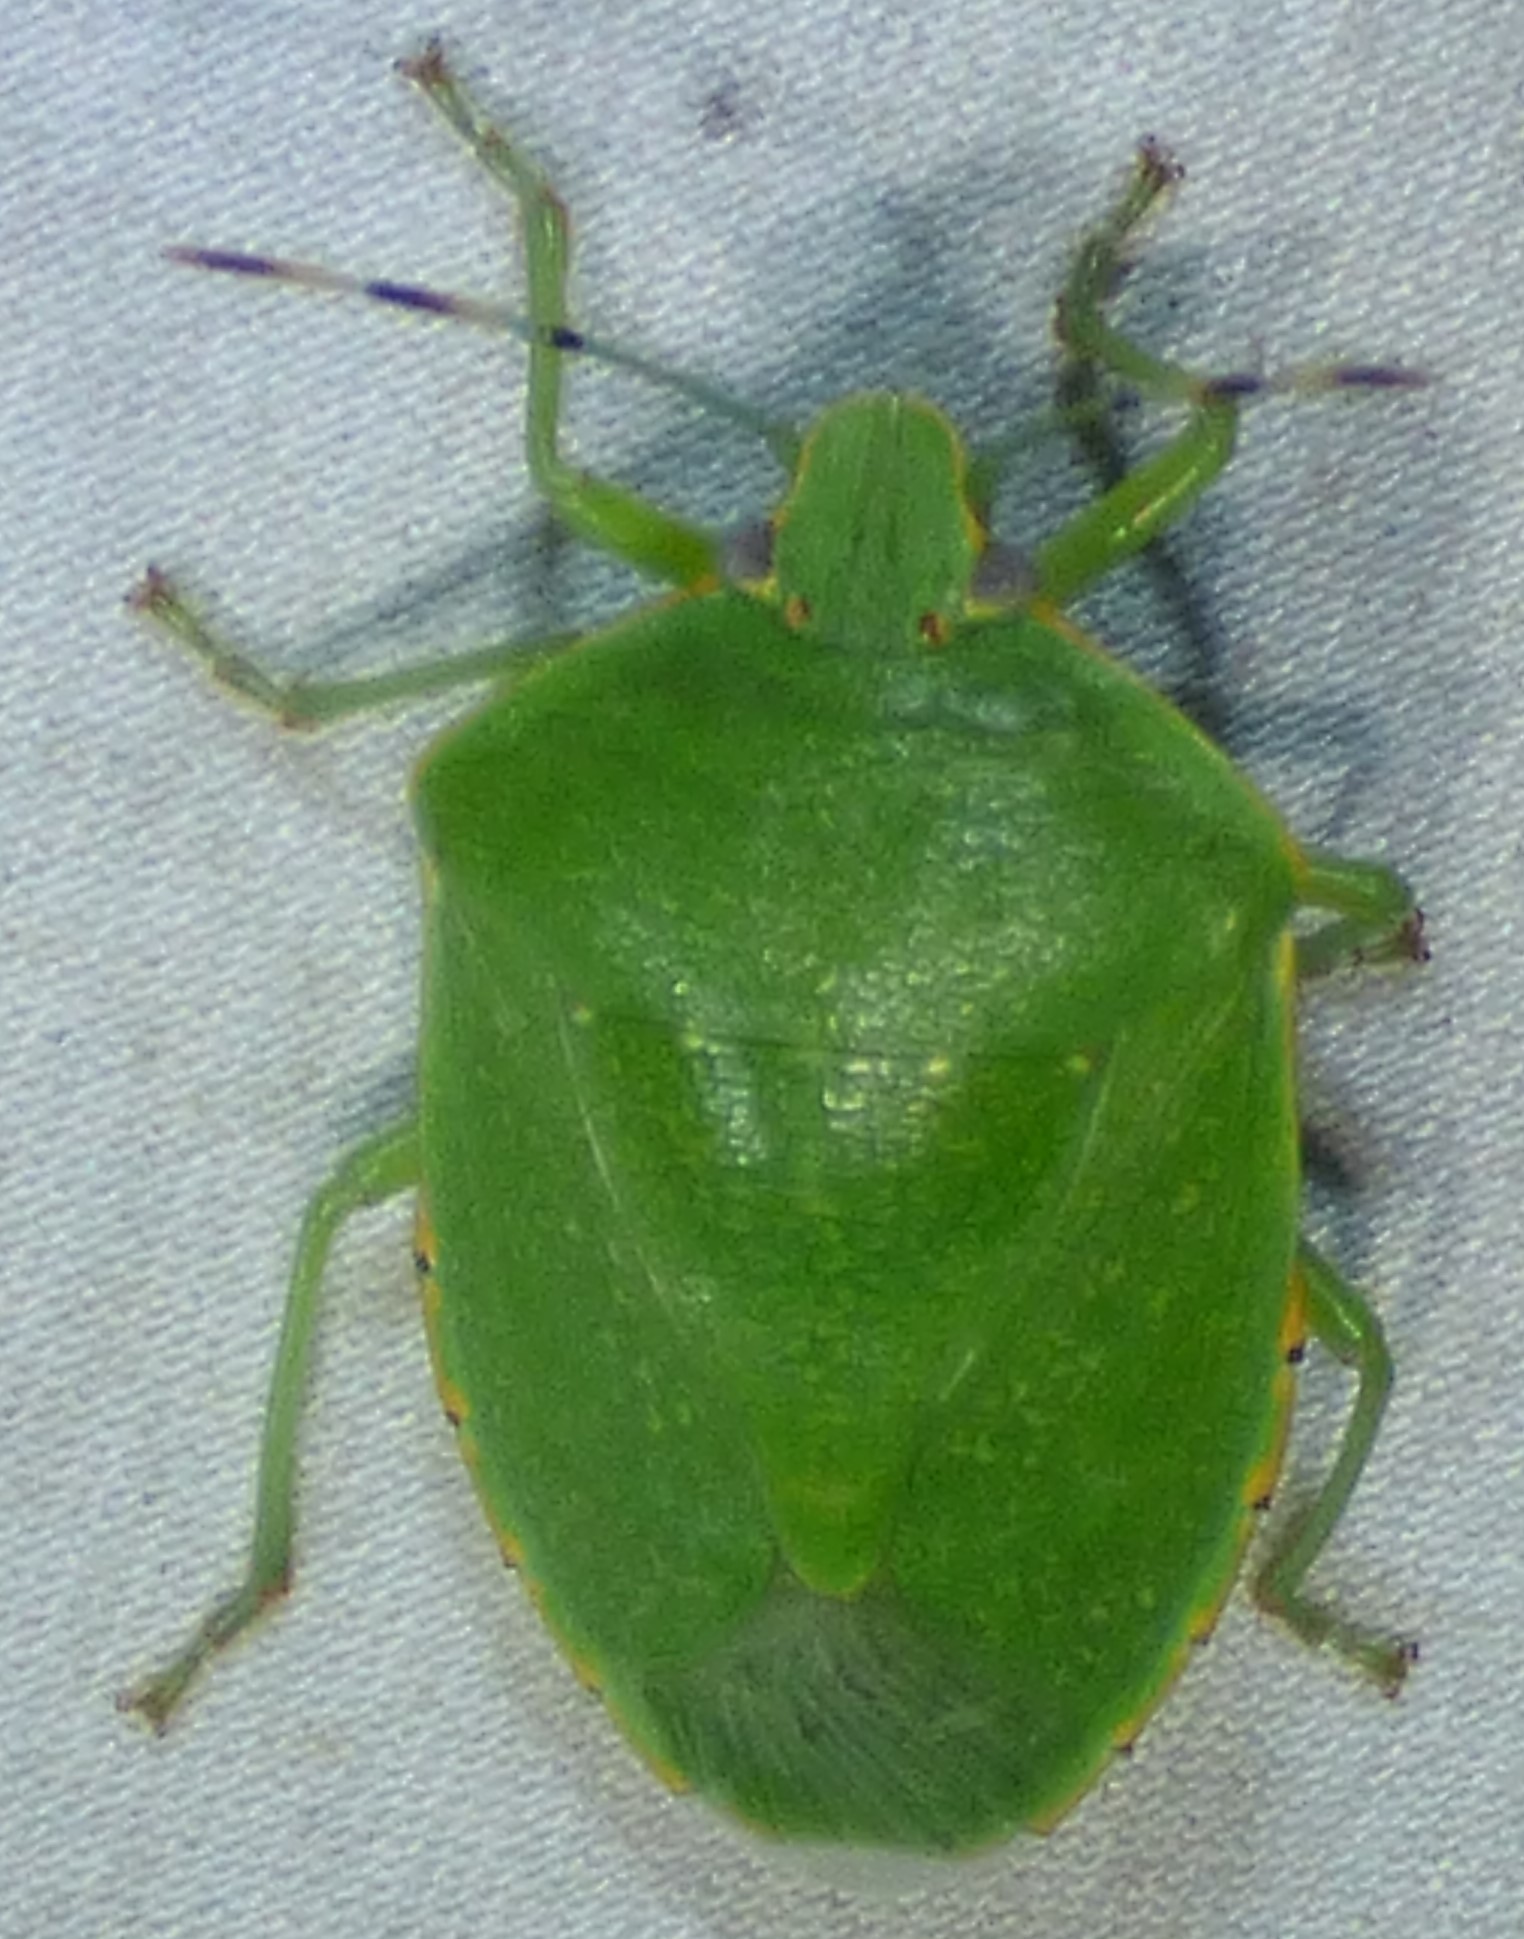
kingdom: Animalia
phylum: Arthropoda
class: Insecta
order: Hemiptera
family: Pentatomidae
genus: Chinavia
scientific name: Chinavia hilaris
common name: Green stink bug
